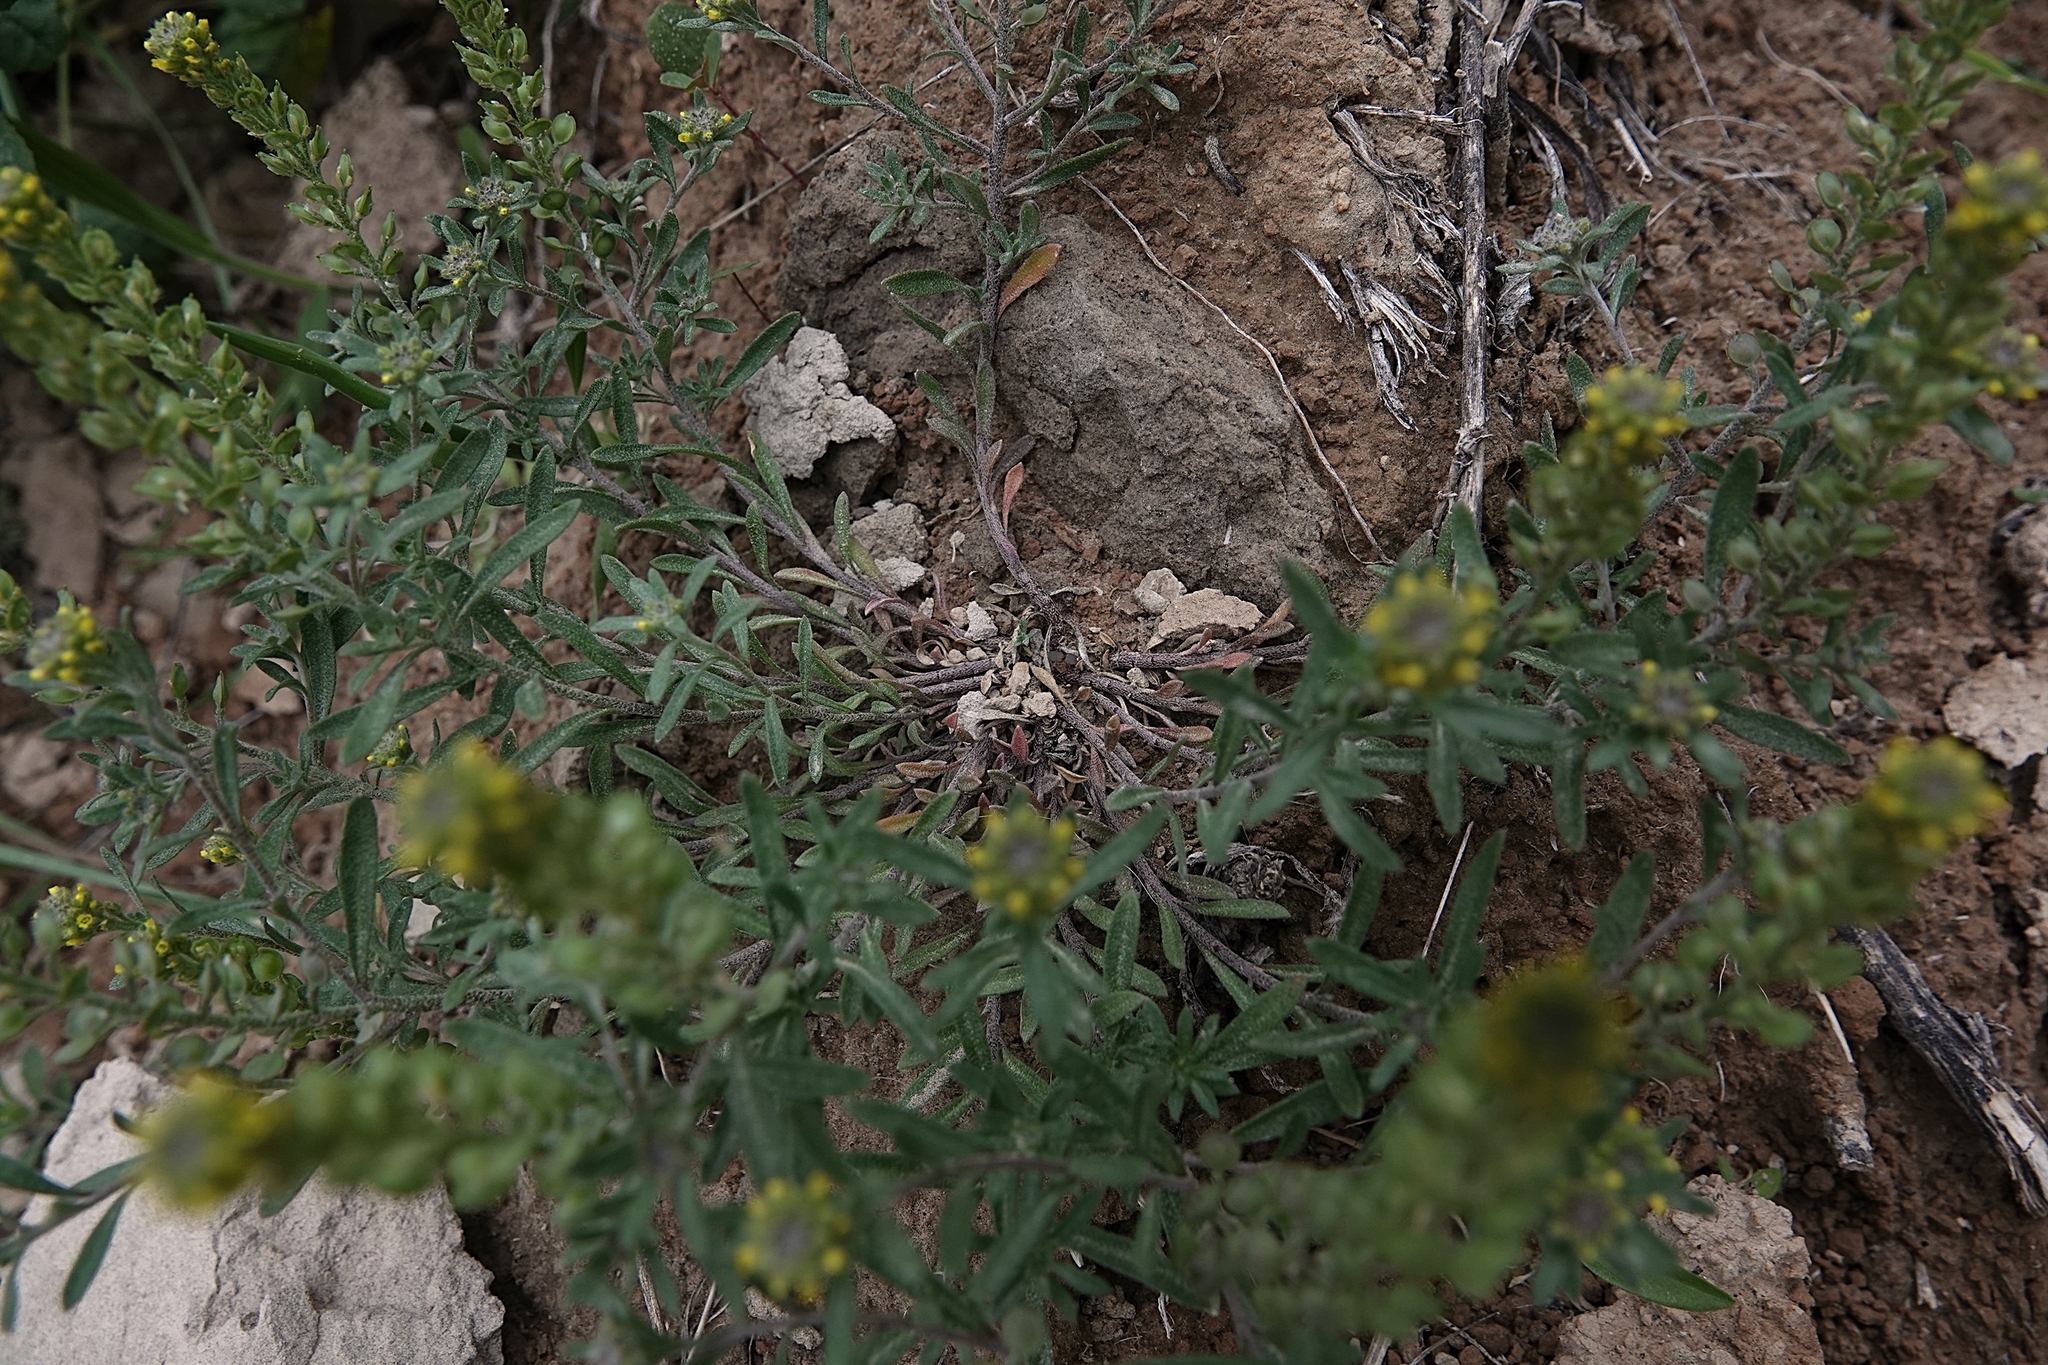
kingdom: Plantae
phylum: Tracheophyta
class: Magnoliopsida
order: Brassicales
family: Brassicaceae
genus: Alyssum
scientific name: Alyssum turkestanicum
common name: Desert alyssum
